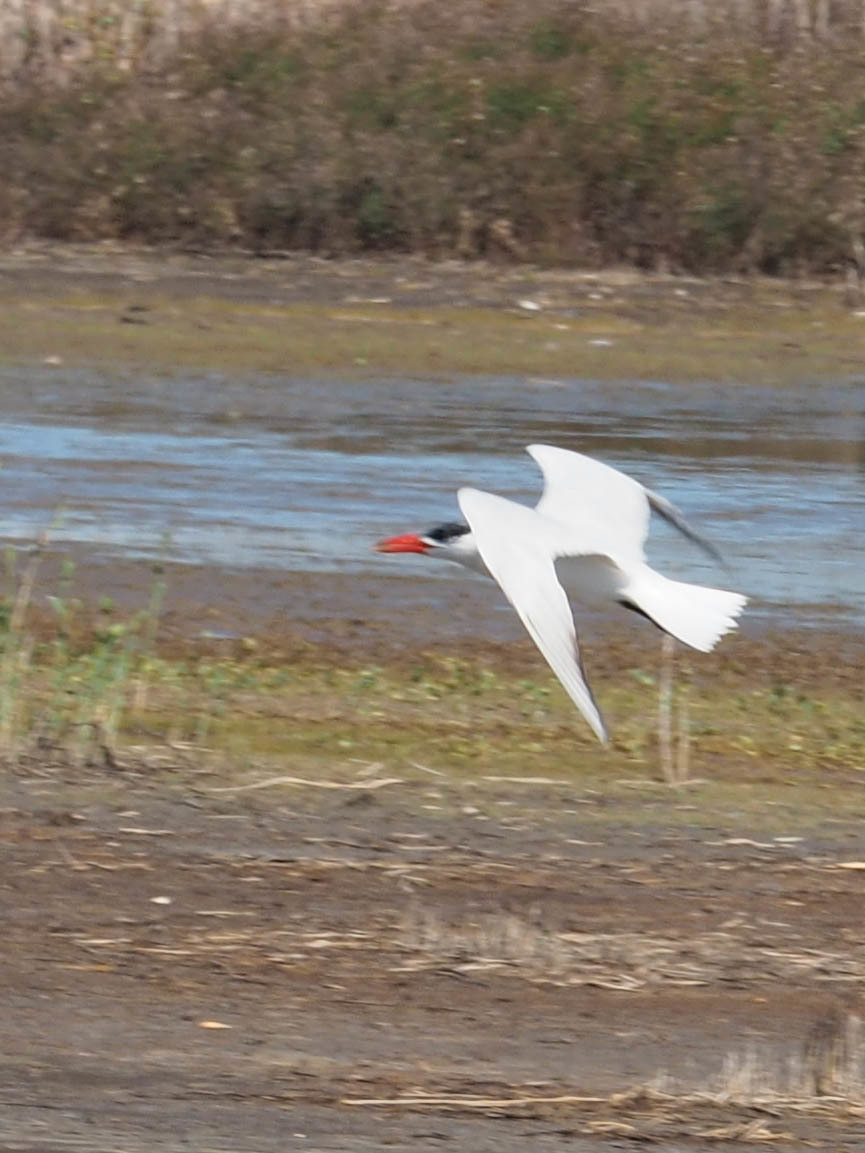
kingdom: Animalia
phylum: Chordata
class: Aves
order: Charadriiformes
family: Laridae
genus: Hydroprogne
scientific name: Hydroprogne caspia
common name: Caspian tern
